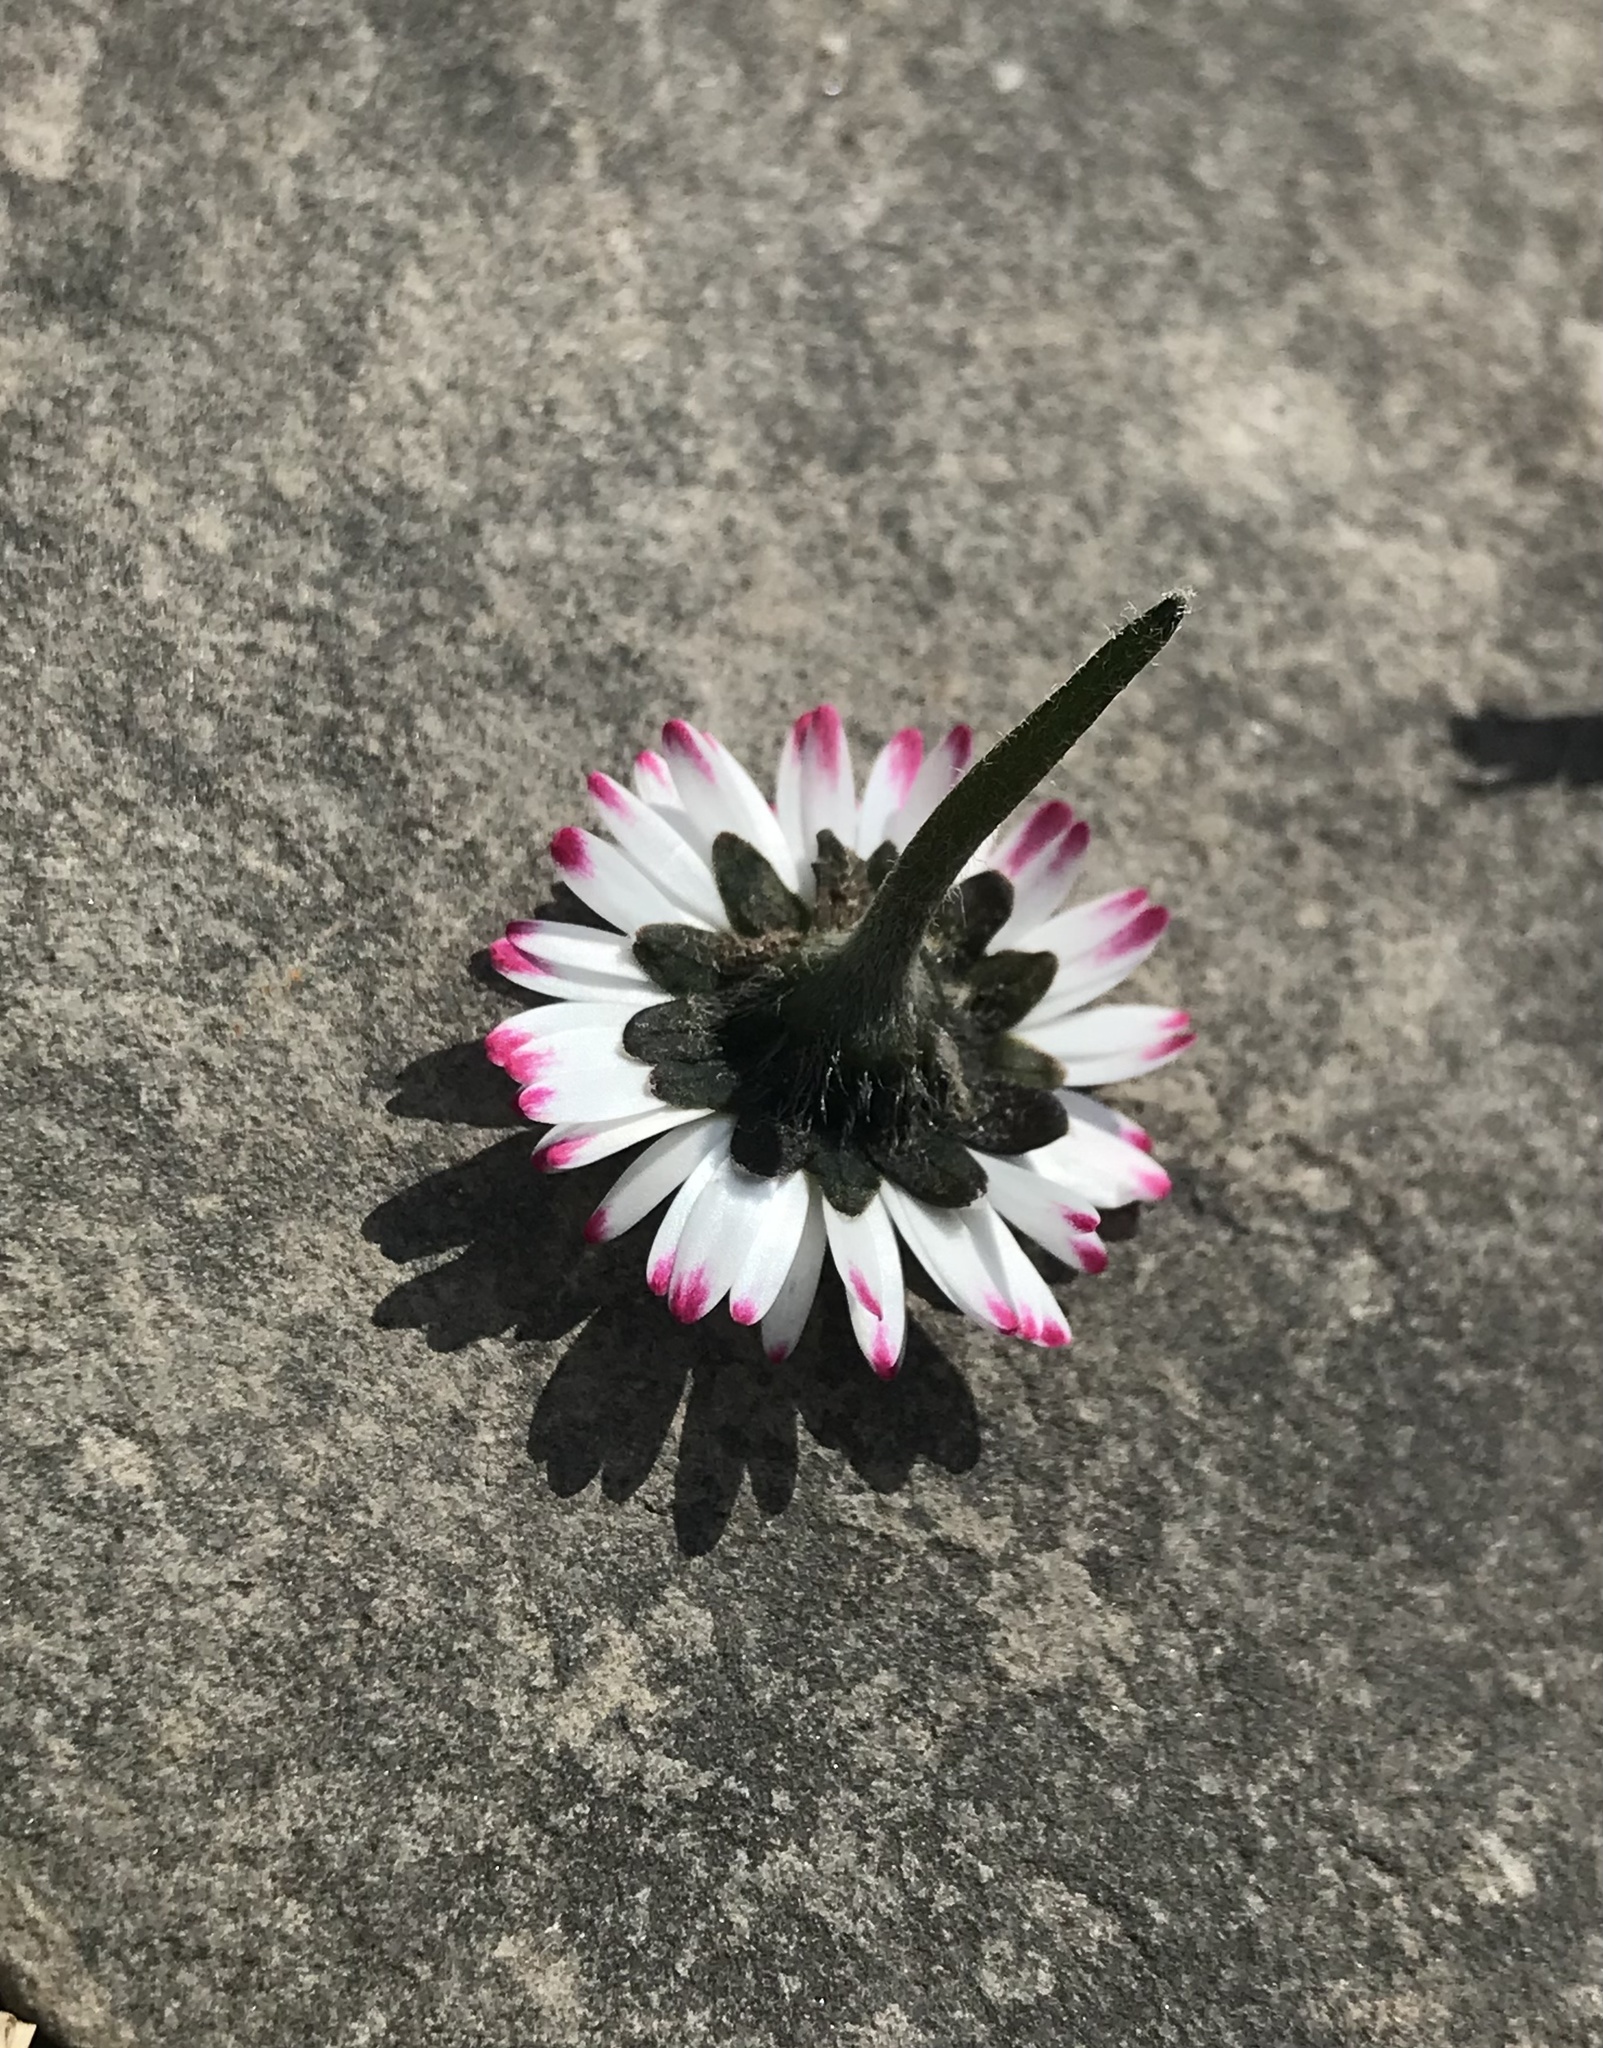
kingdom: Plantae
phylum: Tracheophyta
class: Magnoliopsida
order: Asterales
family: Asteraceae
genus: Bellis
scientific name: Bellis perennis
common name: Lawndaisy
